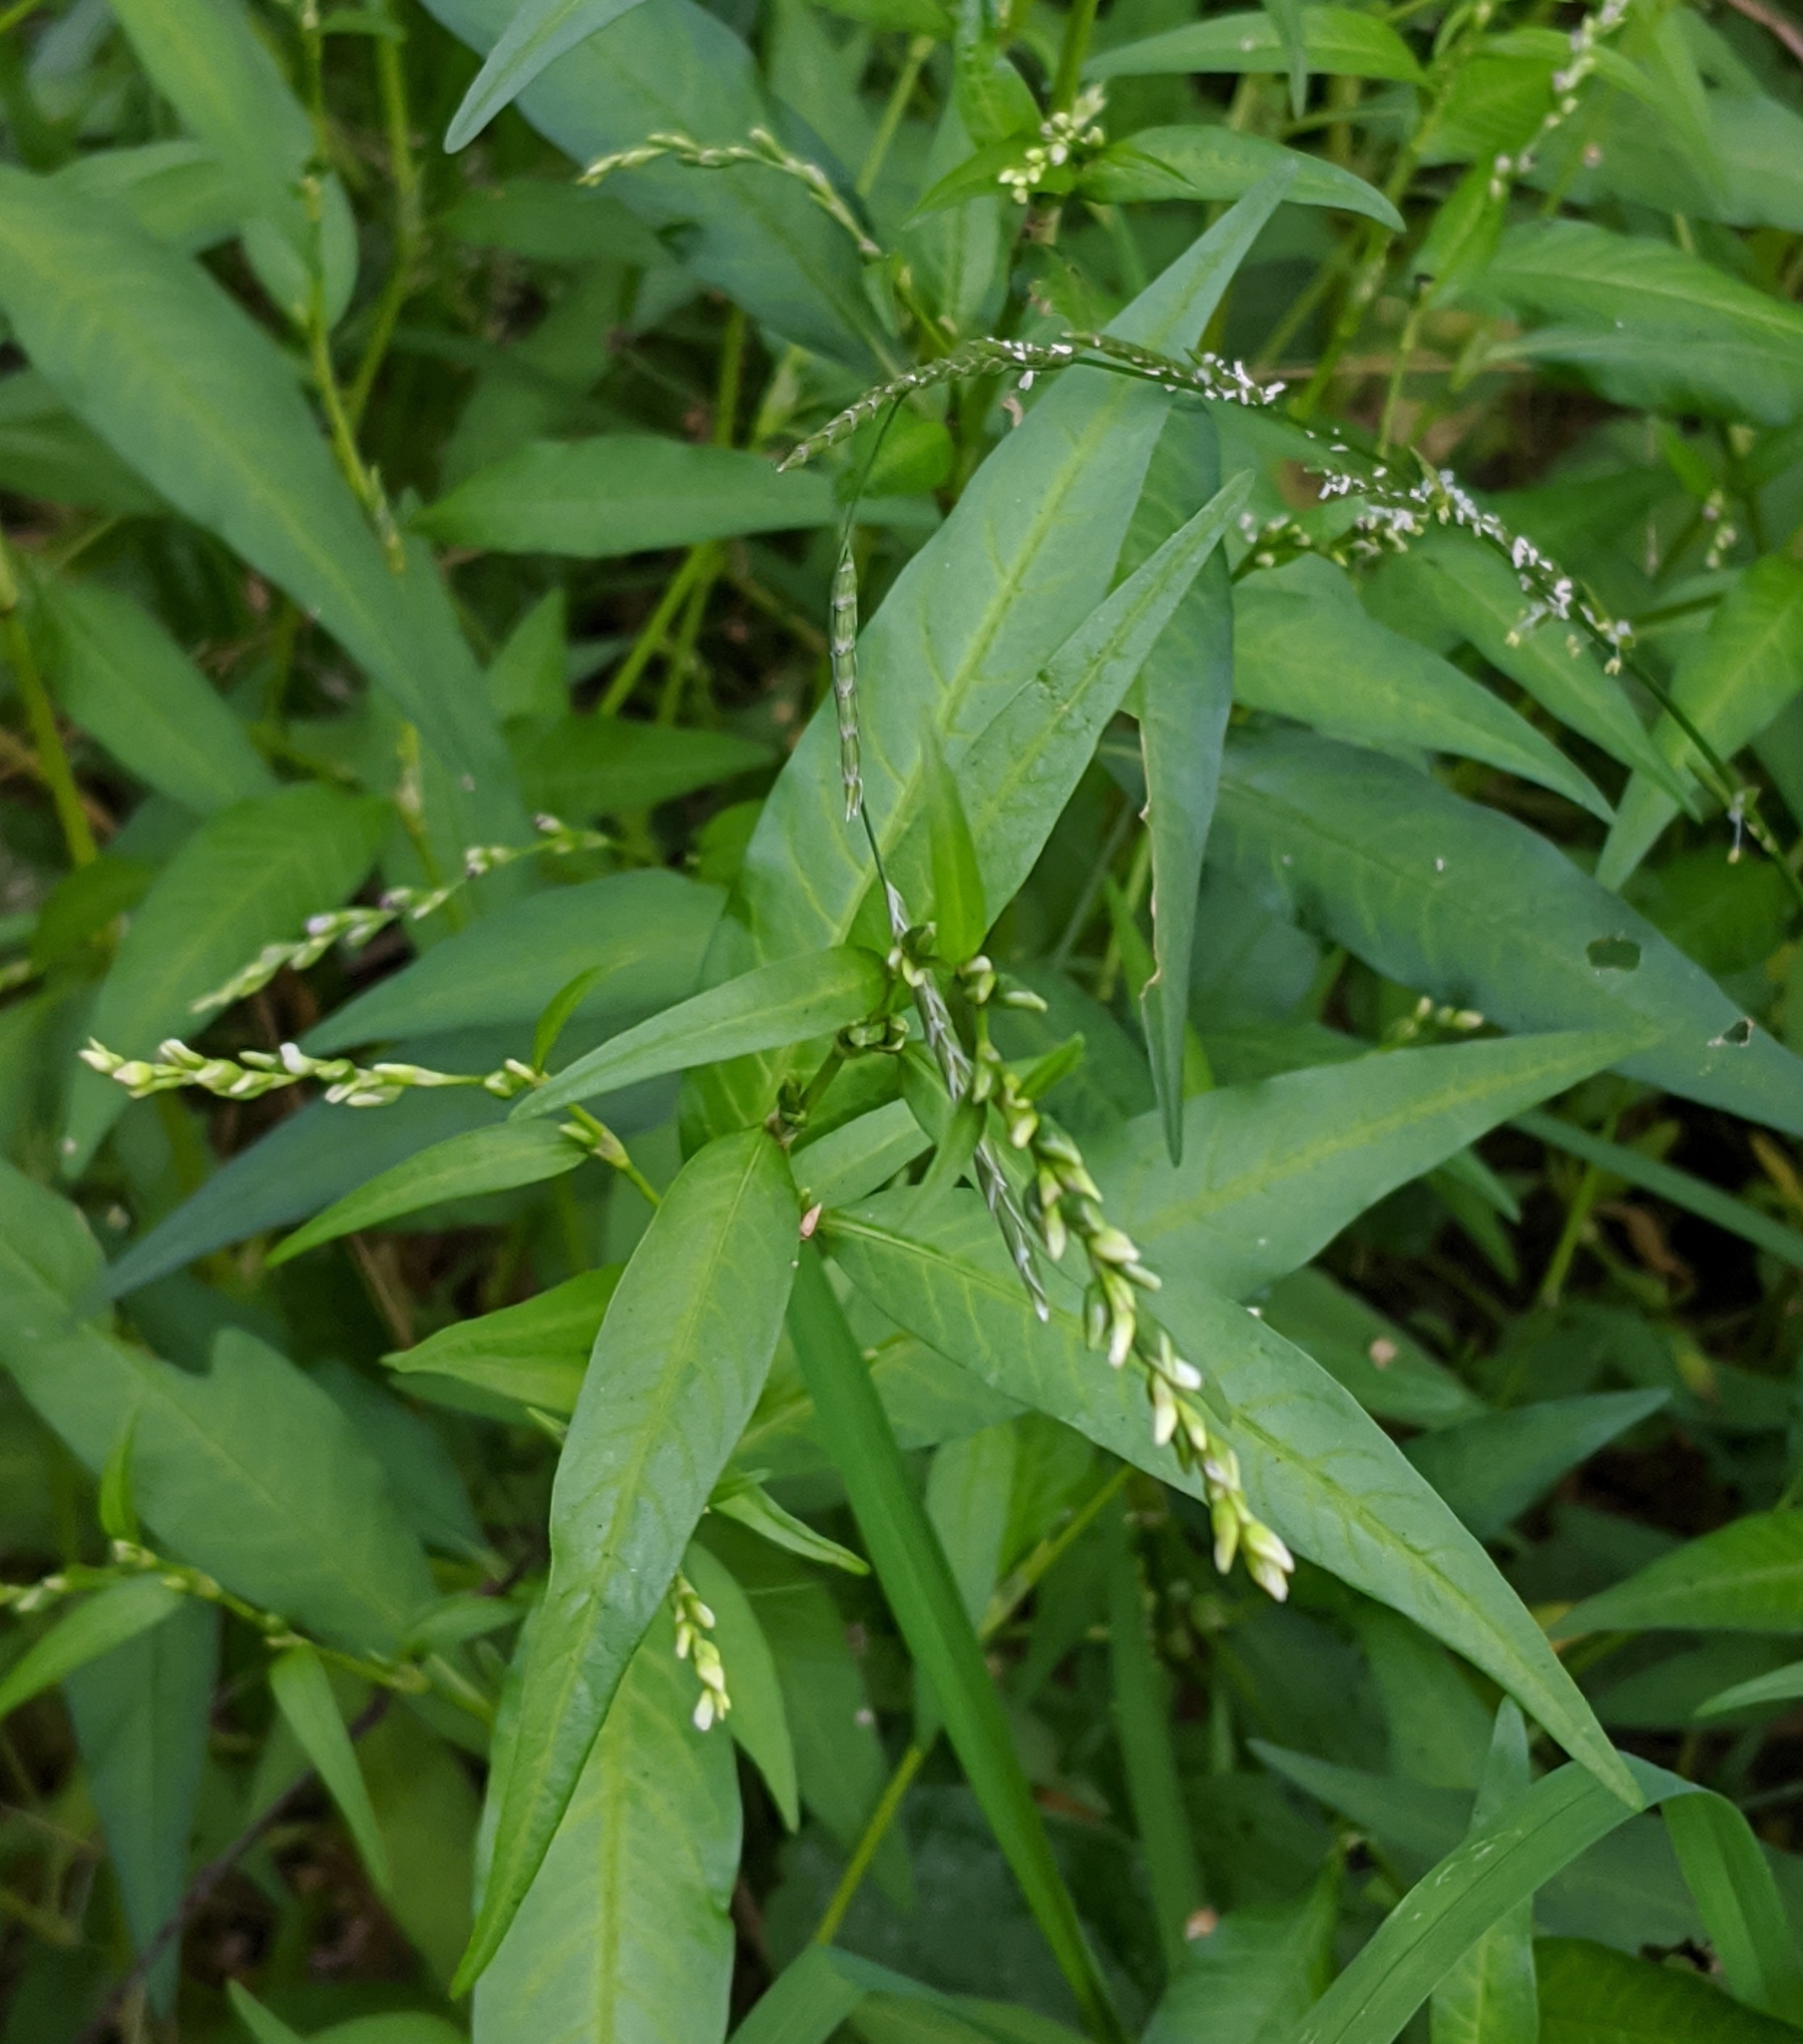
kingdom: Plantae
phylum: Tracheophyta
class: Magnoliopsida
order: Caryophyllales
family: Polygonaceae
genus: Persicaria
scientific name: Persicaria hydropiper
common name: Water-pepper
